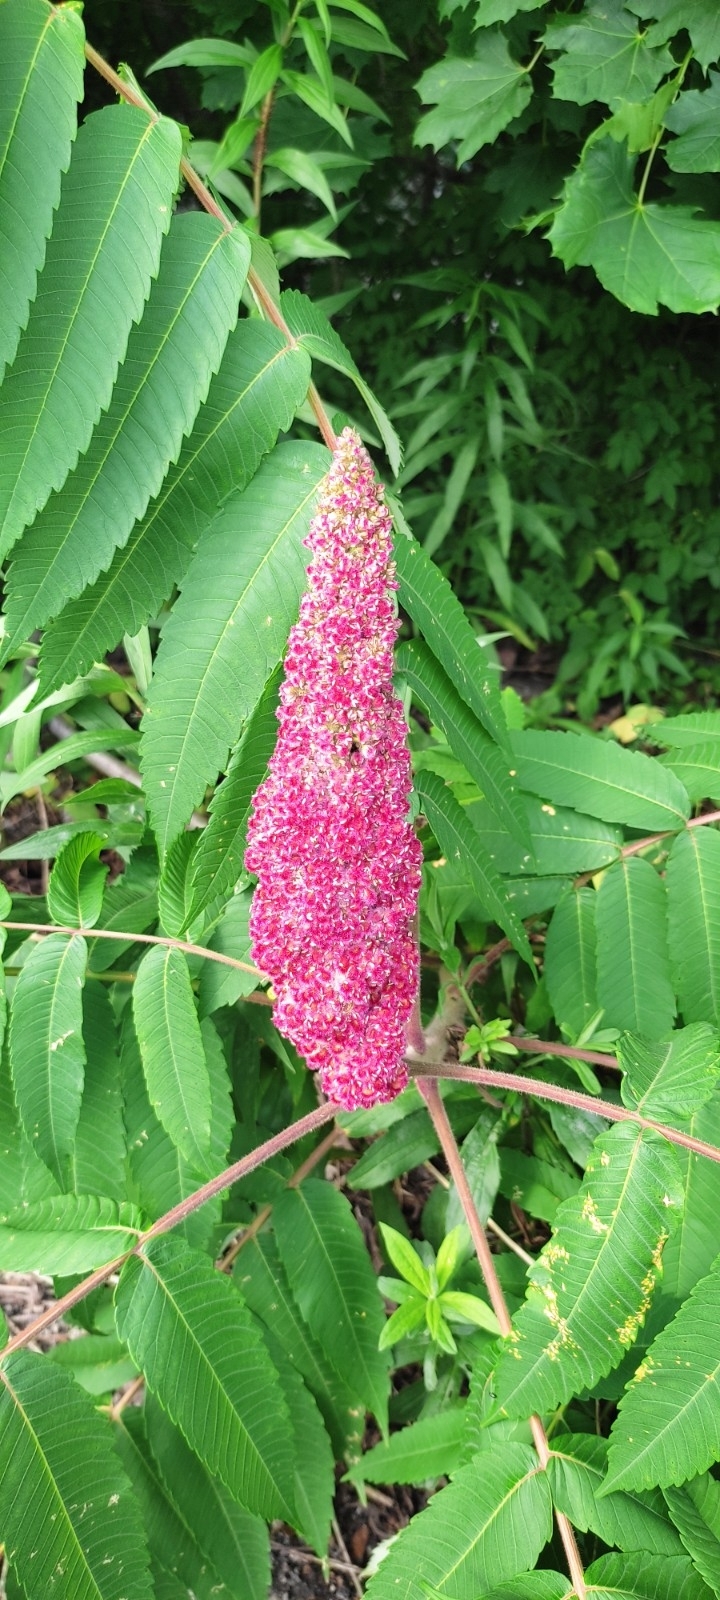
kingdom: Plantae
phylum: Tracheophyta
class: Magnoliopsida
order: Sapindales
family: Anacardiaceae
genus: Rhus
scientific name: Rhus typhina
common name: Staghorn sumac
